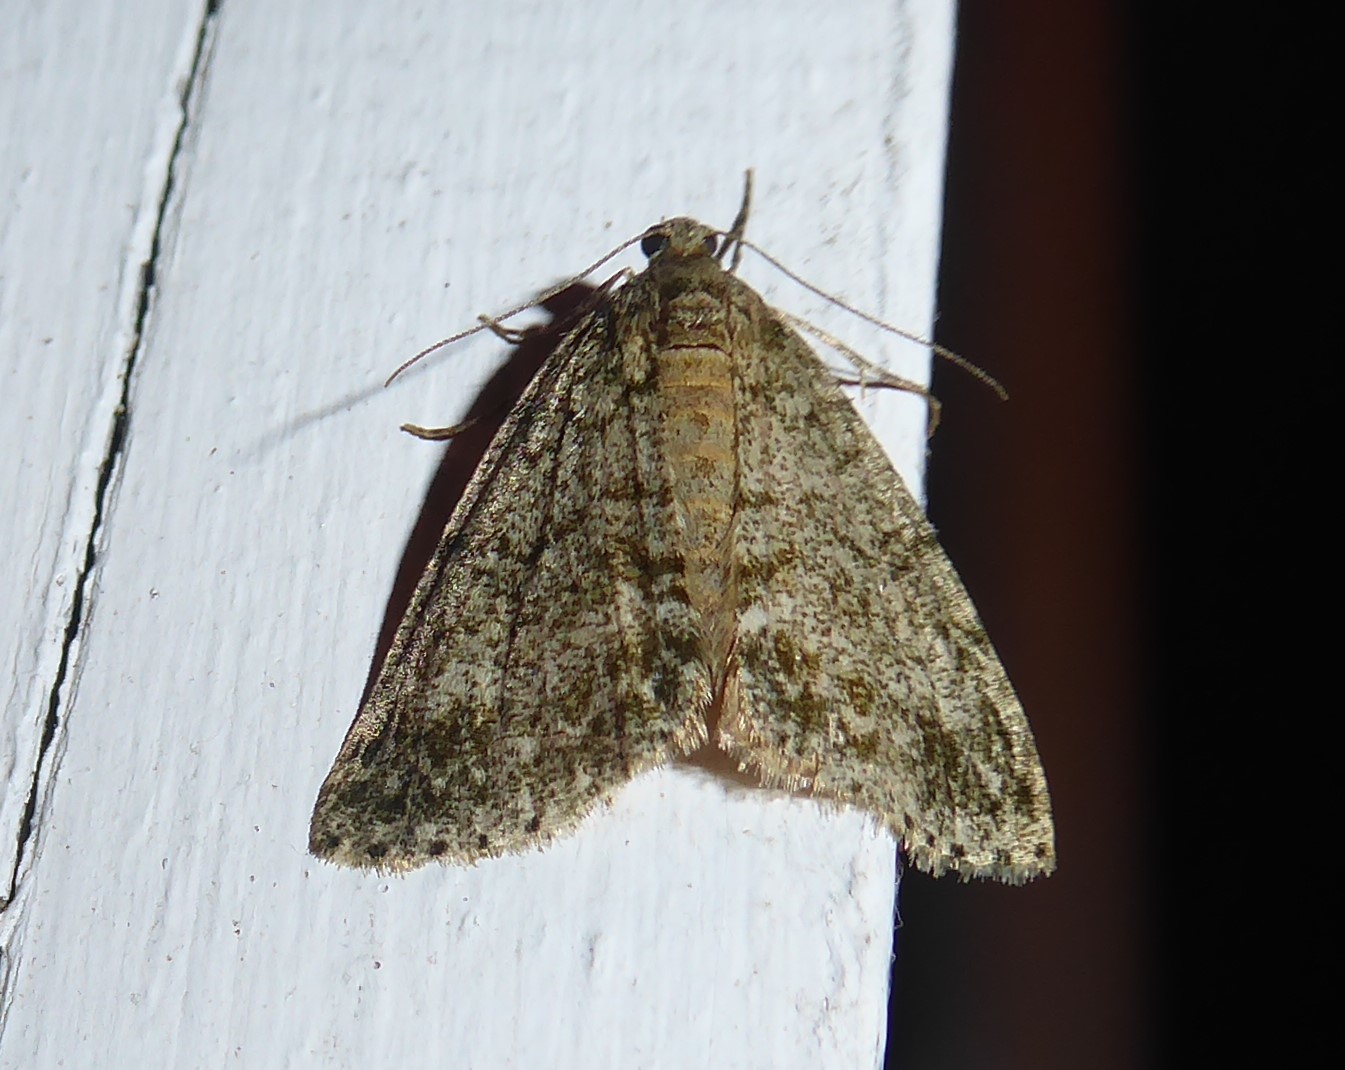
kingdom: Animalia
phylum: Arthropoda
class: Insecta
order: Lepidoptera
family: Geometridae
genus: Pseudocoremia
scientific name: Pseudocoremia indistincta
